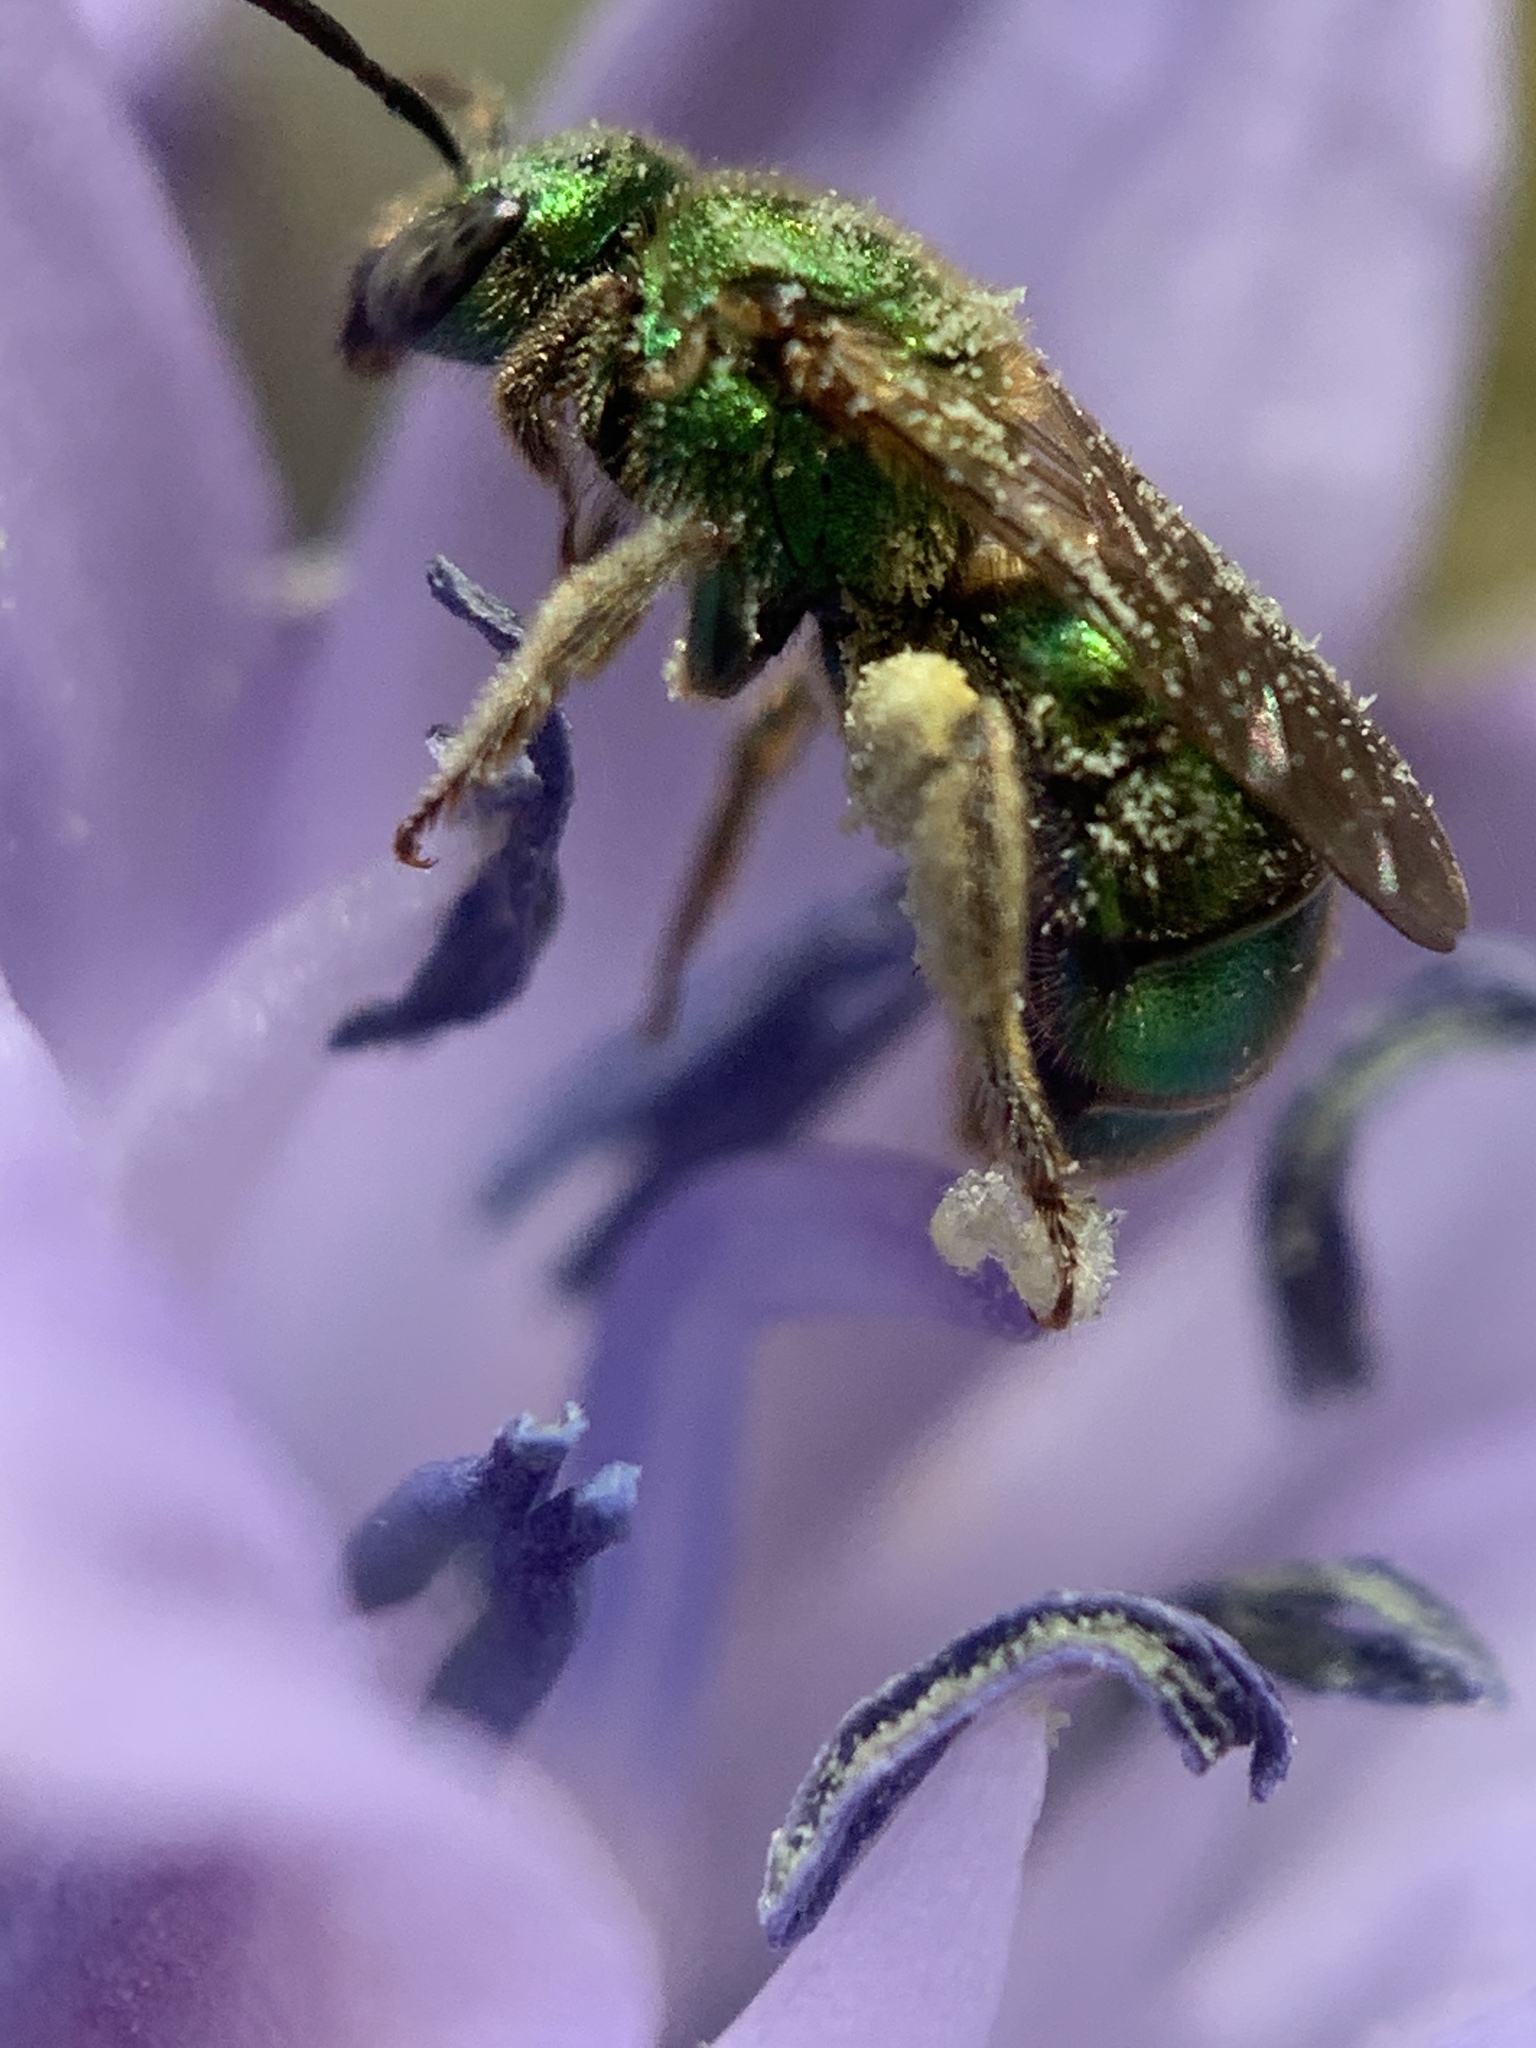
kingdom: Animalia
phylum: Arthropoda
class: Insecta
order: Hymenoptera
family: Halictidae
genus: Augochlorella
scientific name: Augochlorella aurata
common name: Golden sweat bee
